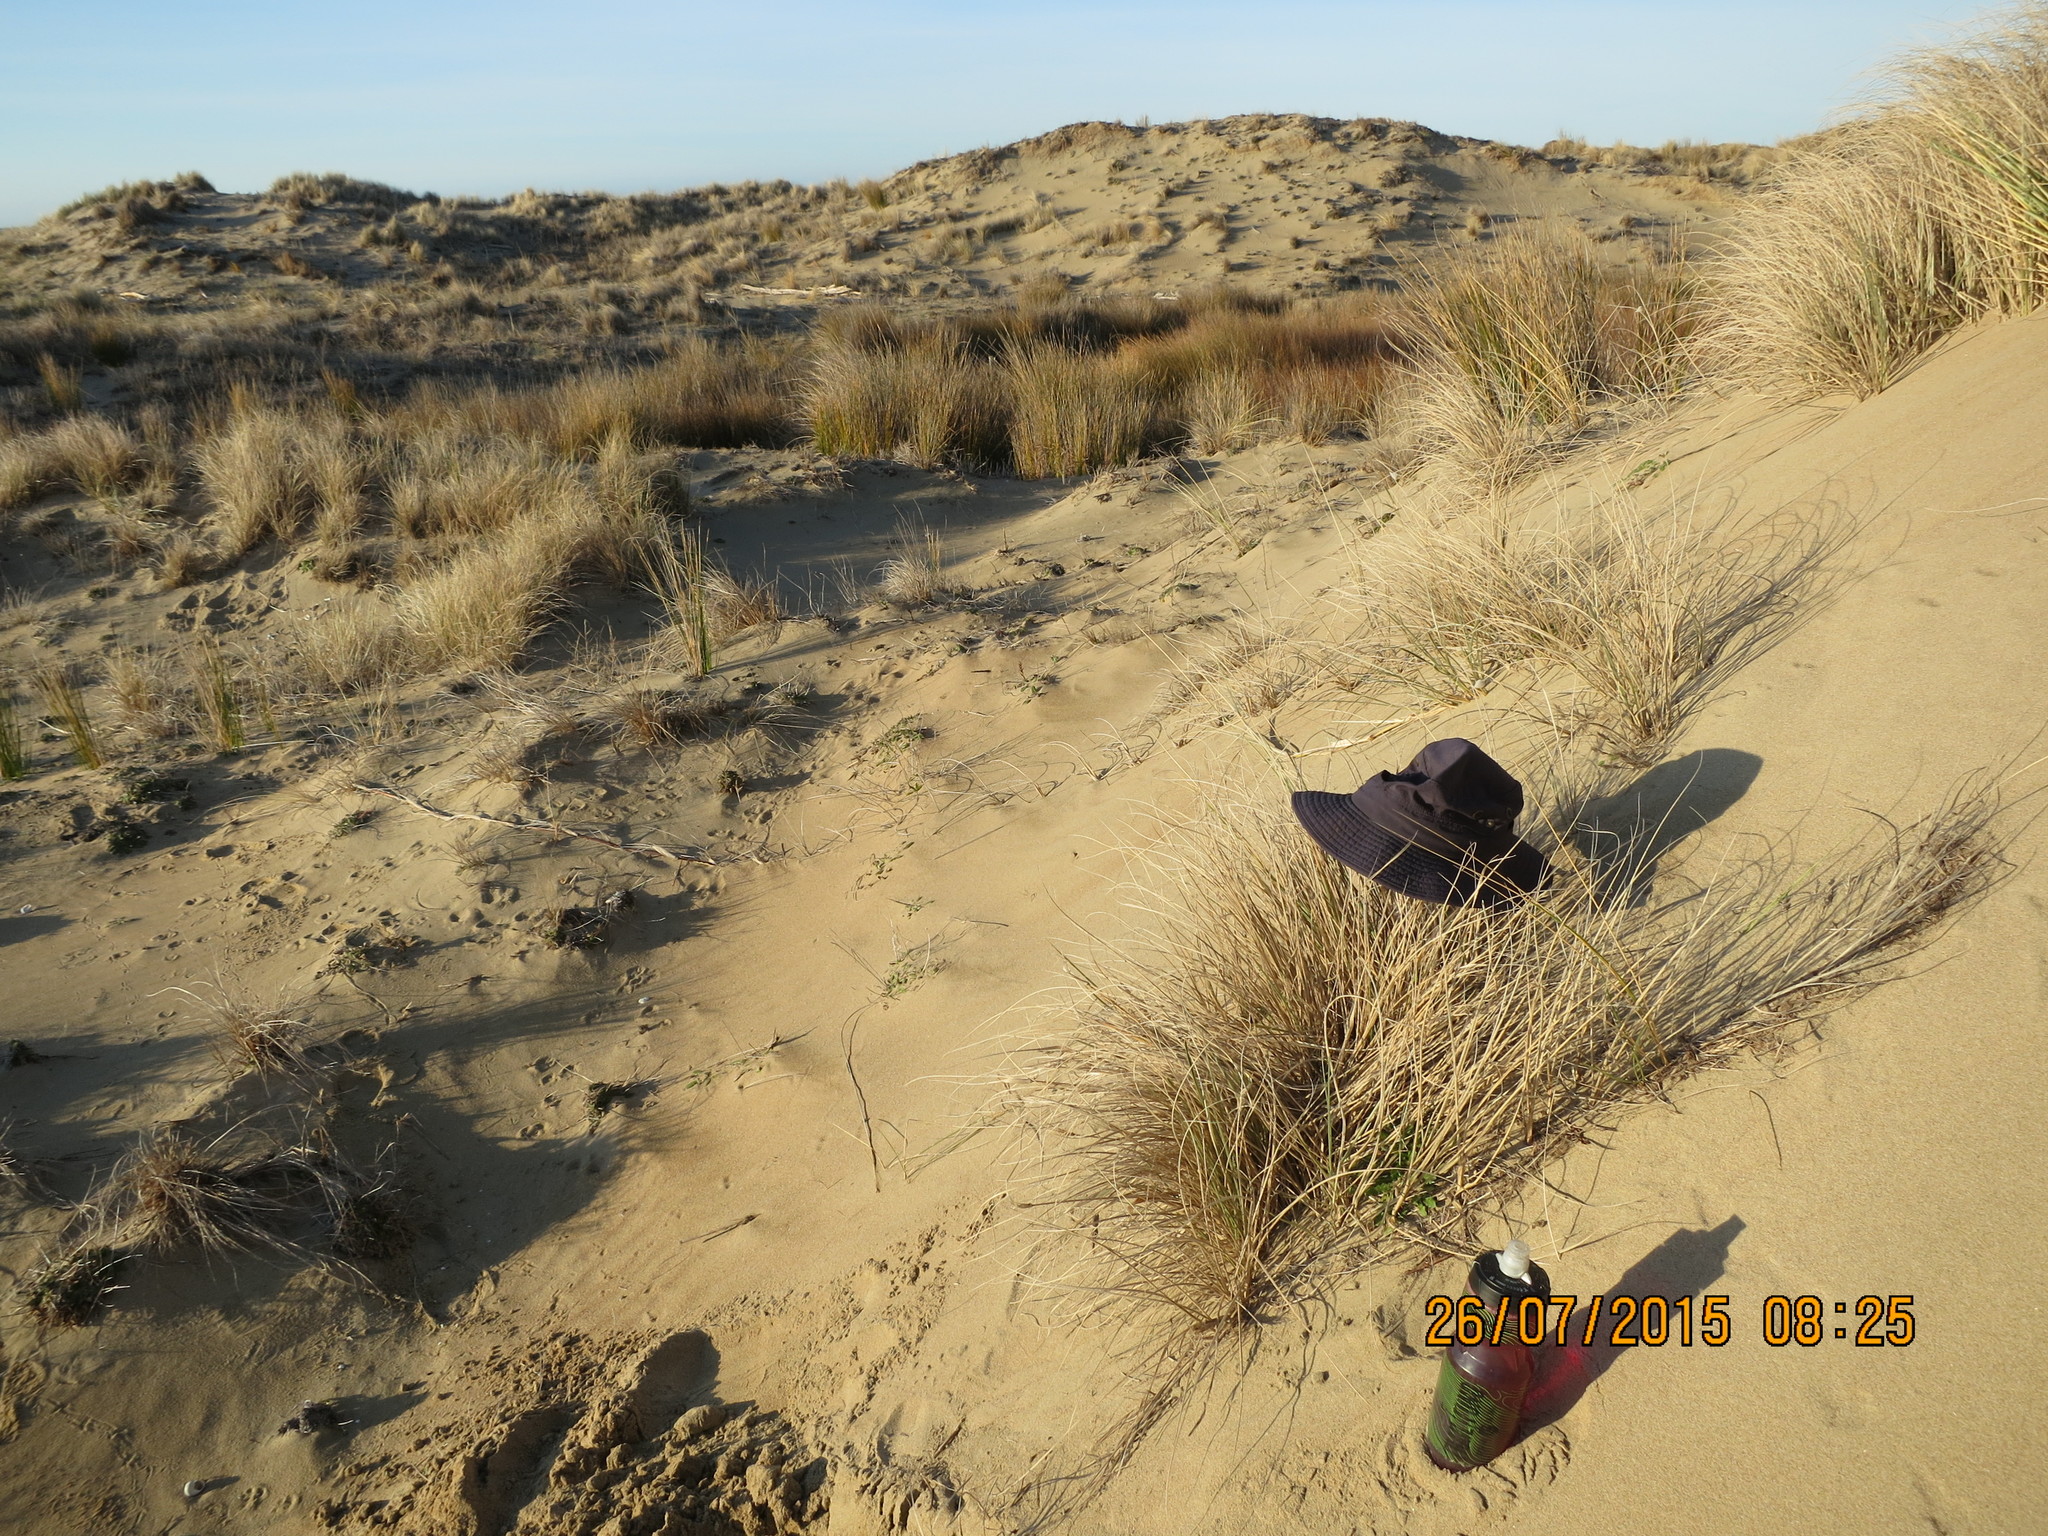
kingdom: Animalia
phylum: Arthropoda
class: Arachnida
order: Araneae
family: Thomisidae
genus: Sidymella
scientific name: Sidymella trapezia
